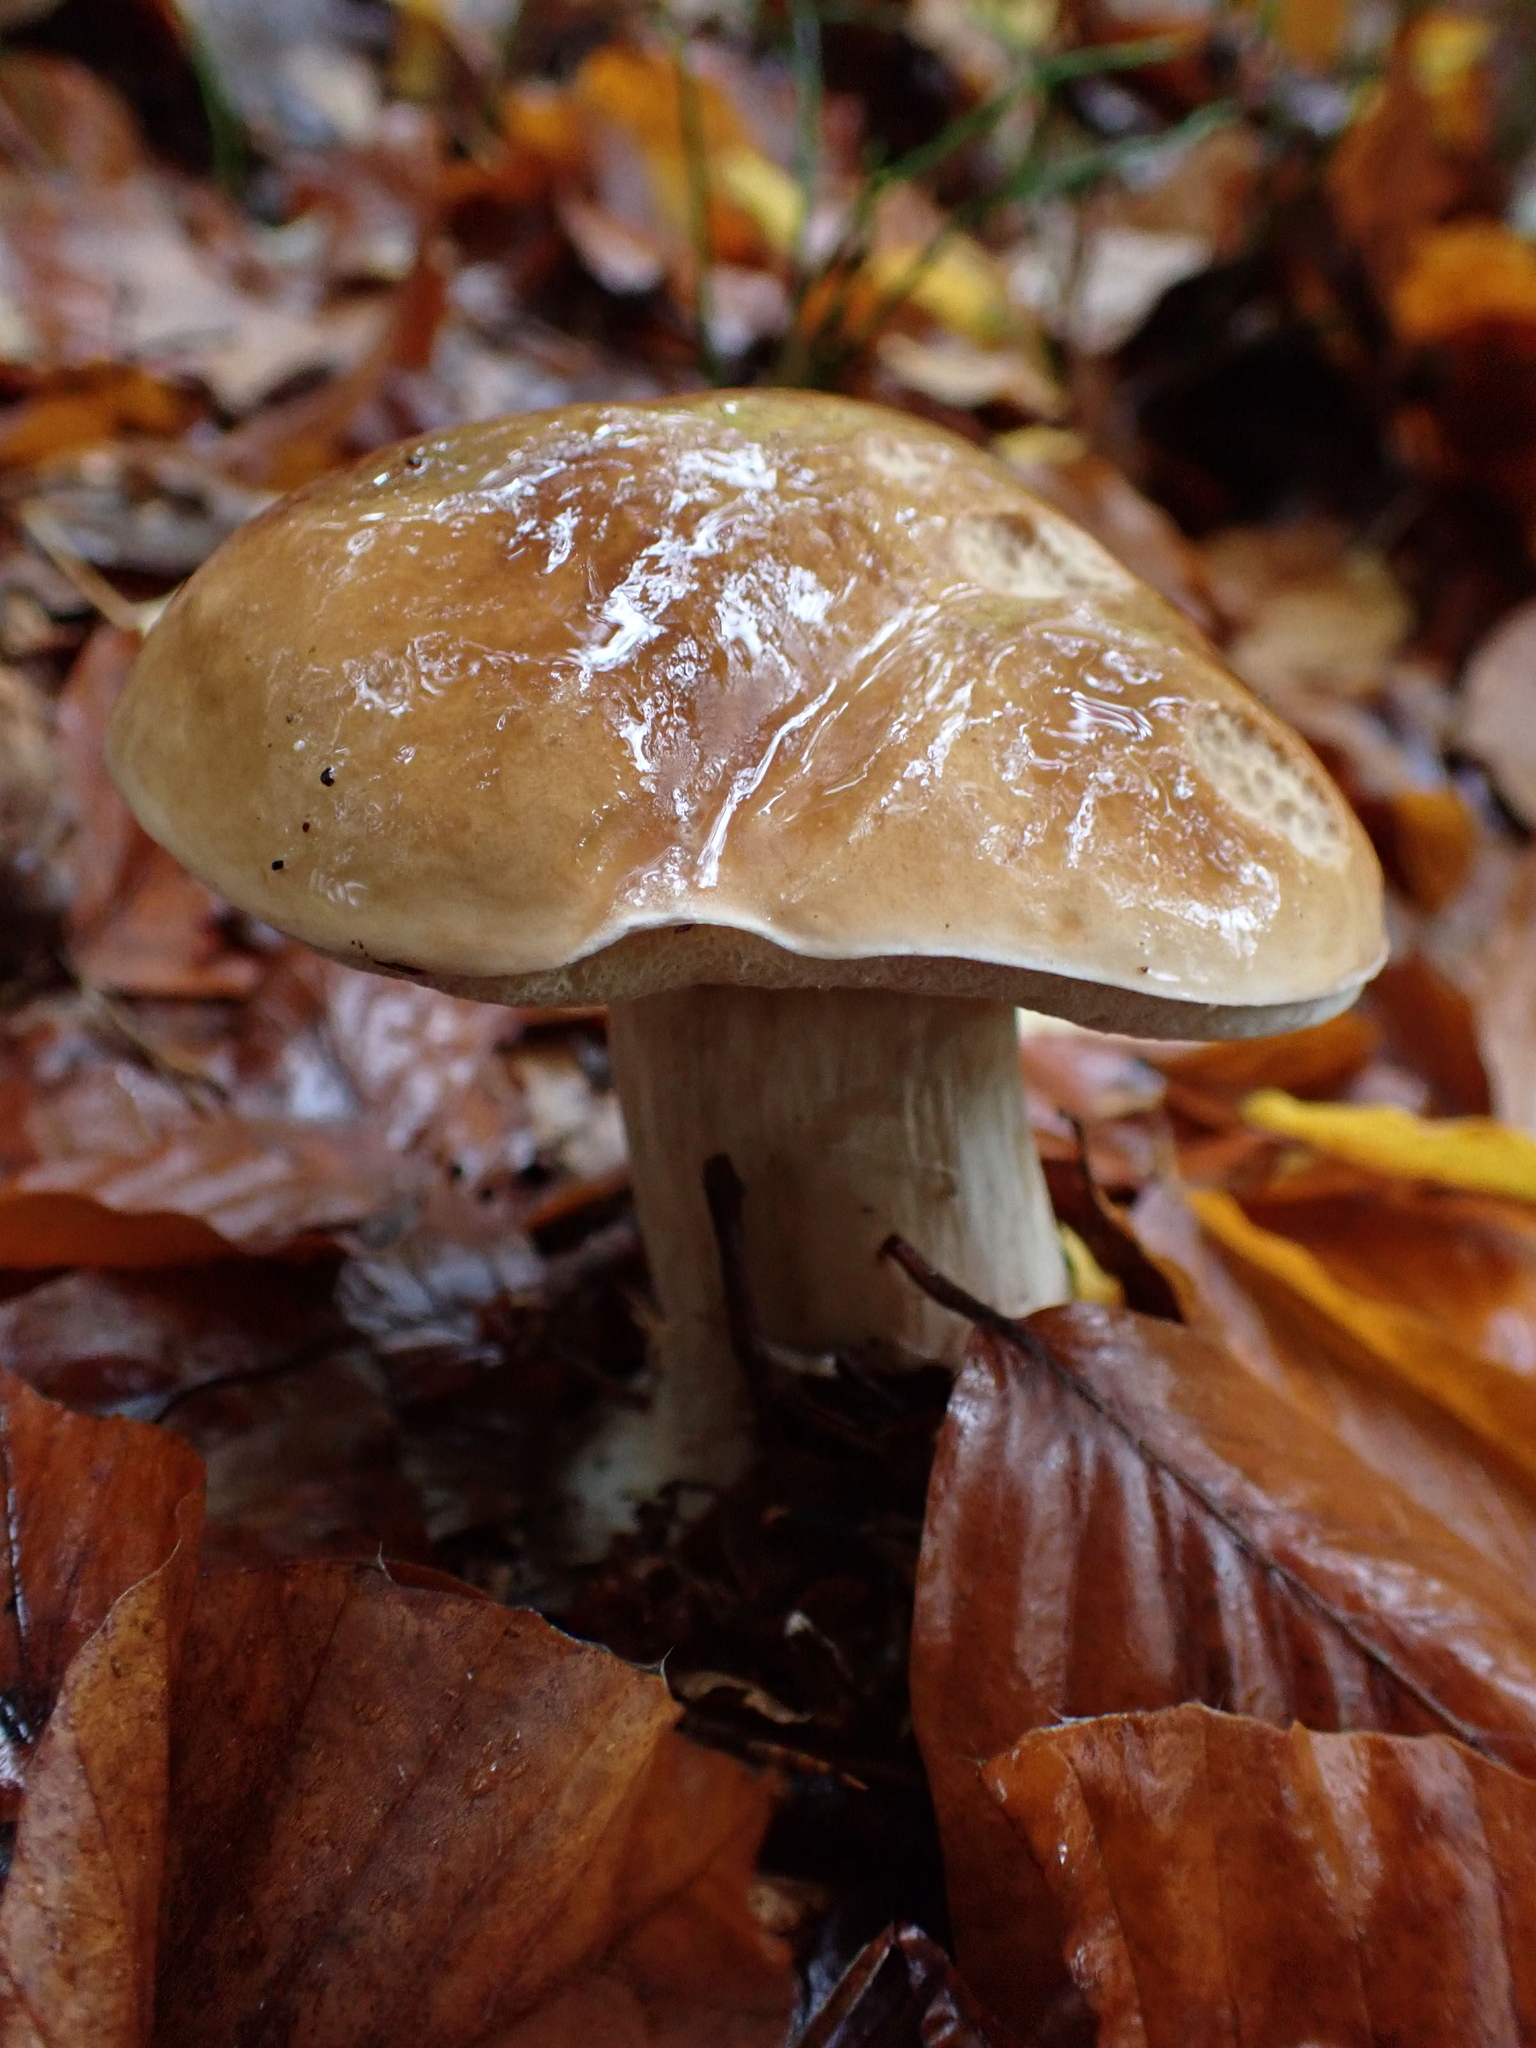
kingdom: Fungi
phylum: Basidiomycota
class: Agaricomycetes
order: Boletales
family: Boletaceae
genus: Boletus
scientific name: Boletus edulis
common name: Cep
